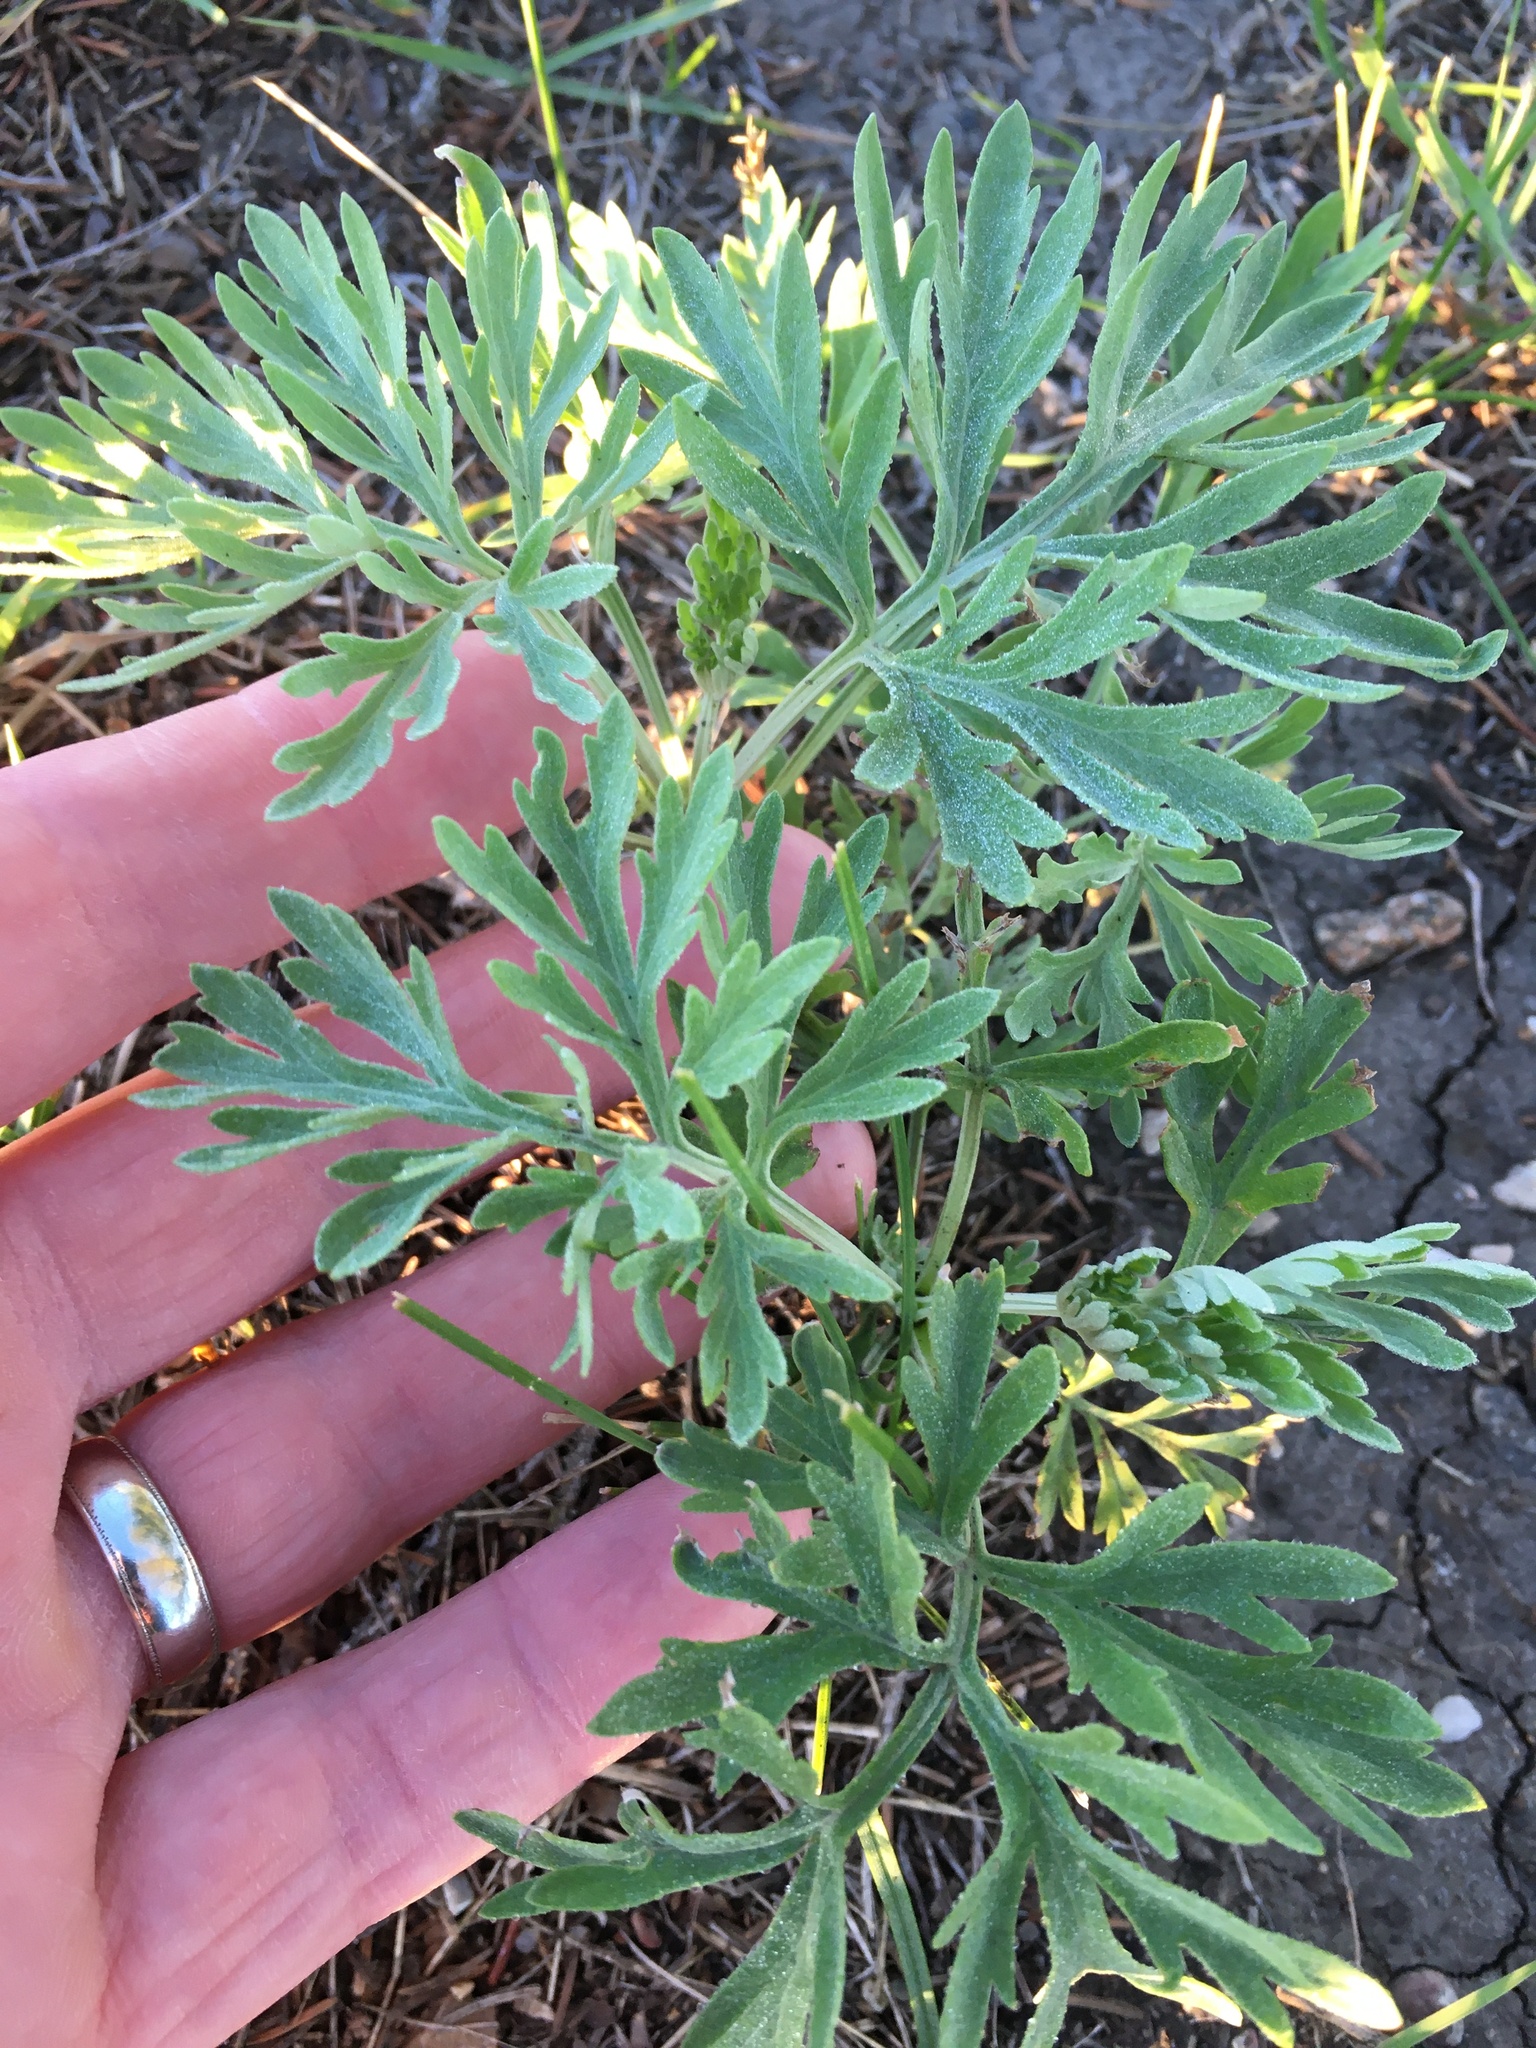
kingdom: Plantae
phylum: Tracheophyta
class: Magnoliopsida
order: Asterales
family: Asteraceae
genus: Artemisia
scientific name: Artemisia absinthium
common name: Wormwood
